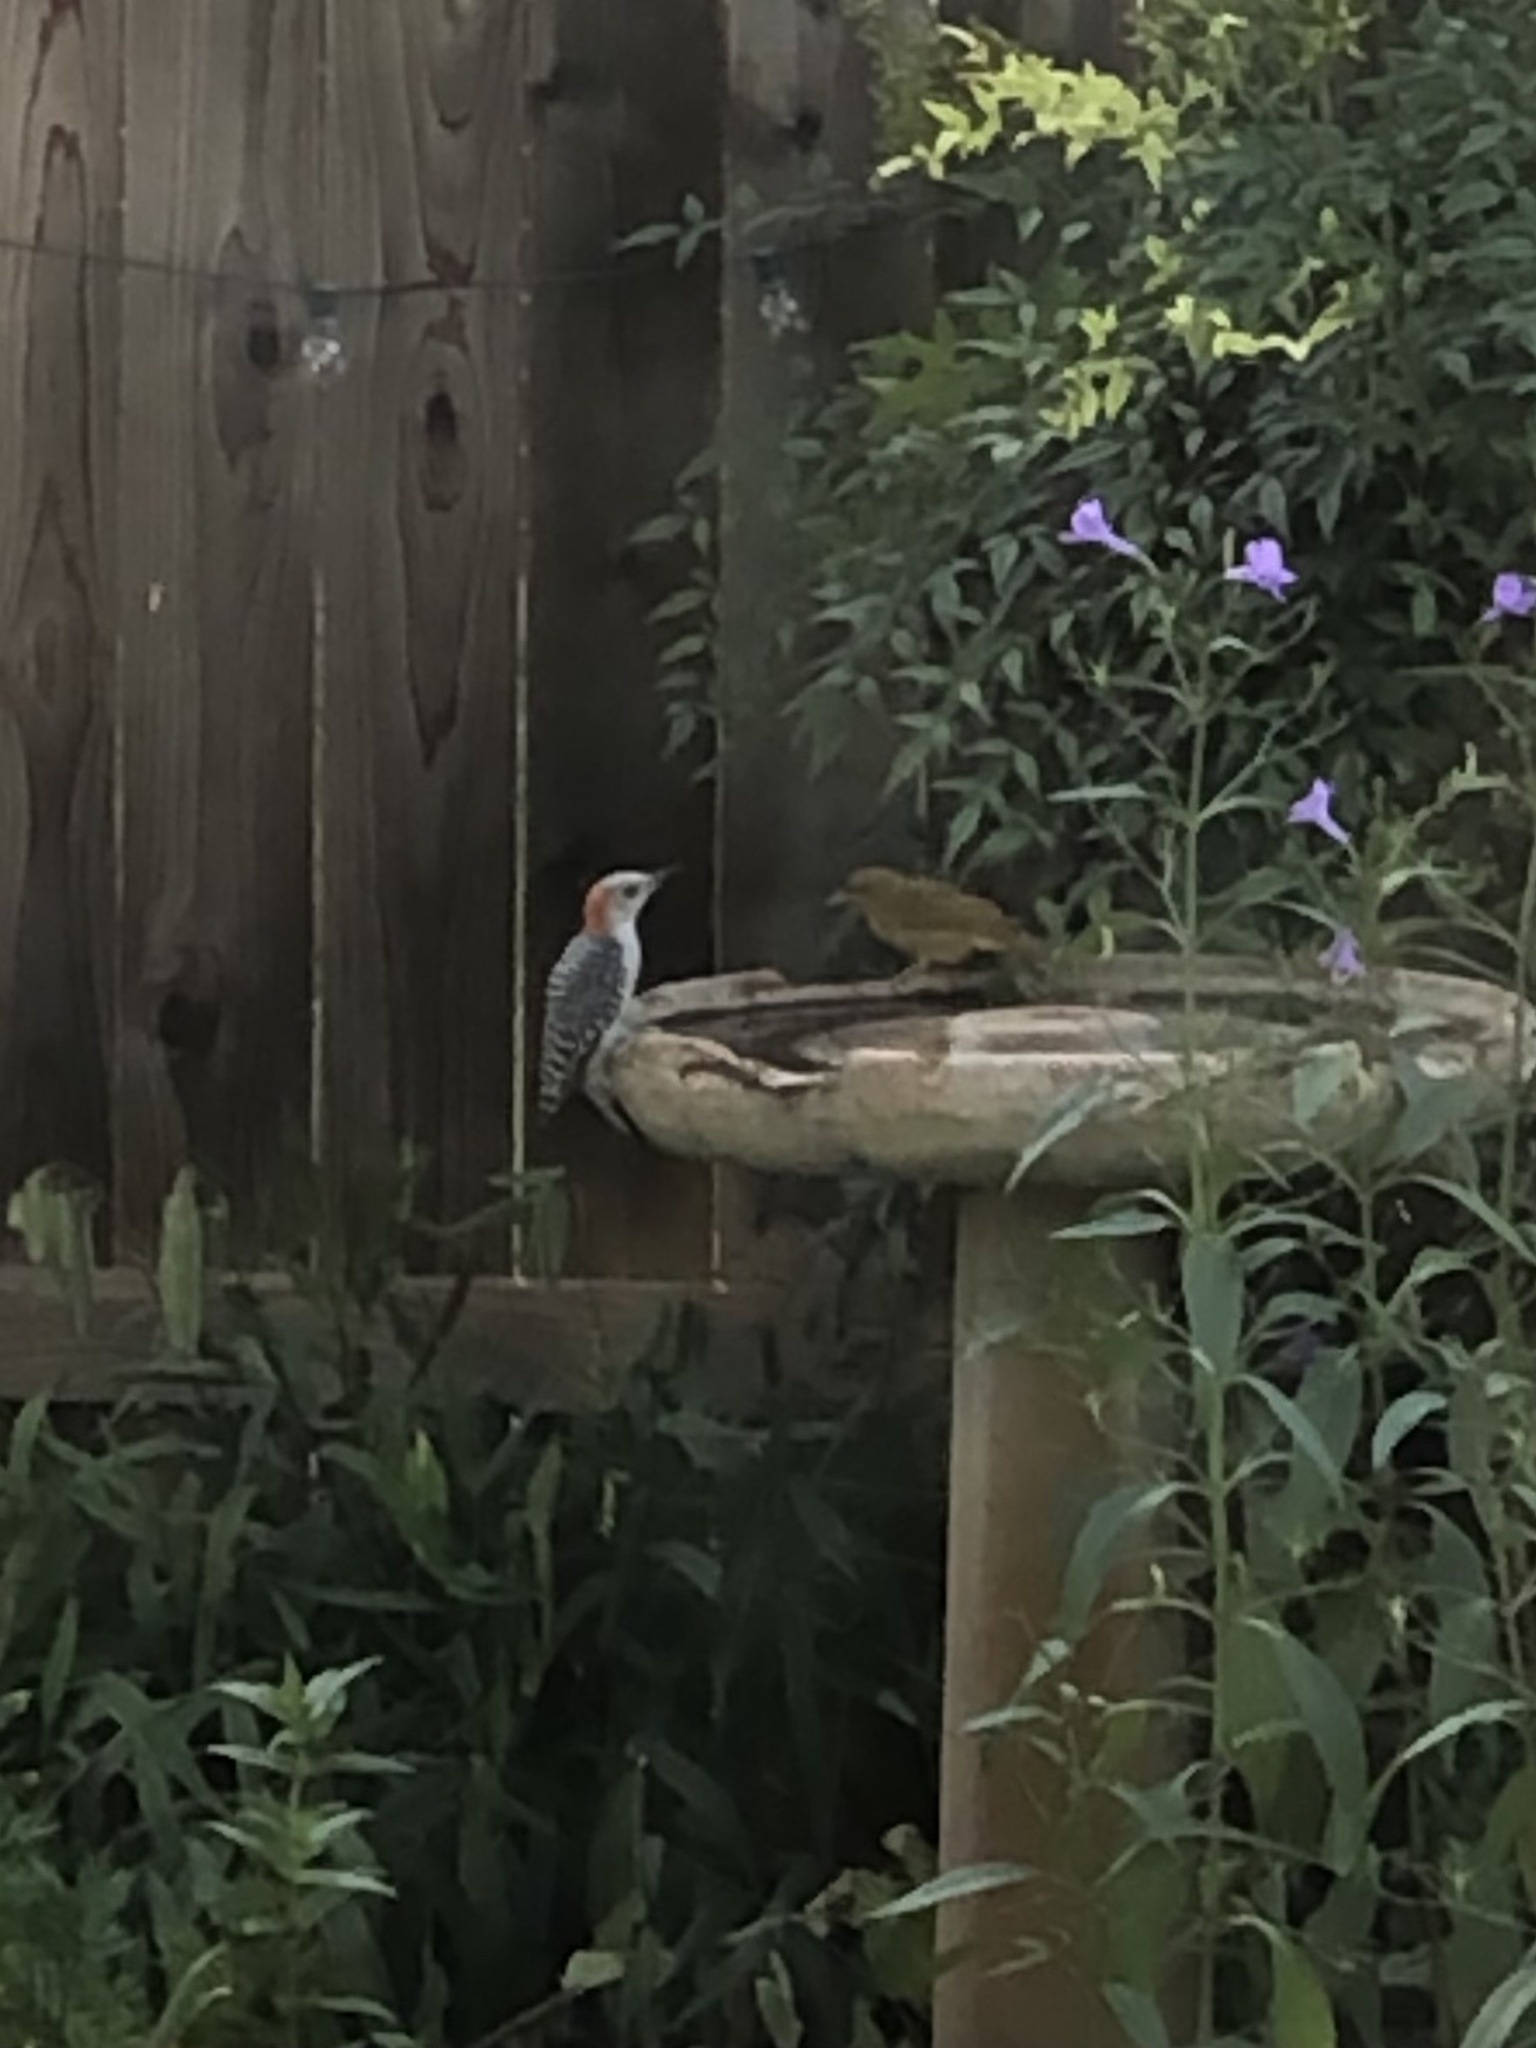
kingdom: Animalia
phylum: Chordata
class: Aves
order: Piciformes
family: Picidae
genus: Melanerpes
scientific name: Melanerpes carolinus
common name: Red-bellied woodpecker
